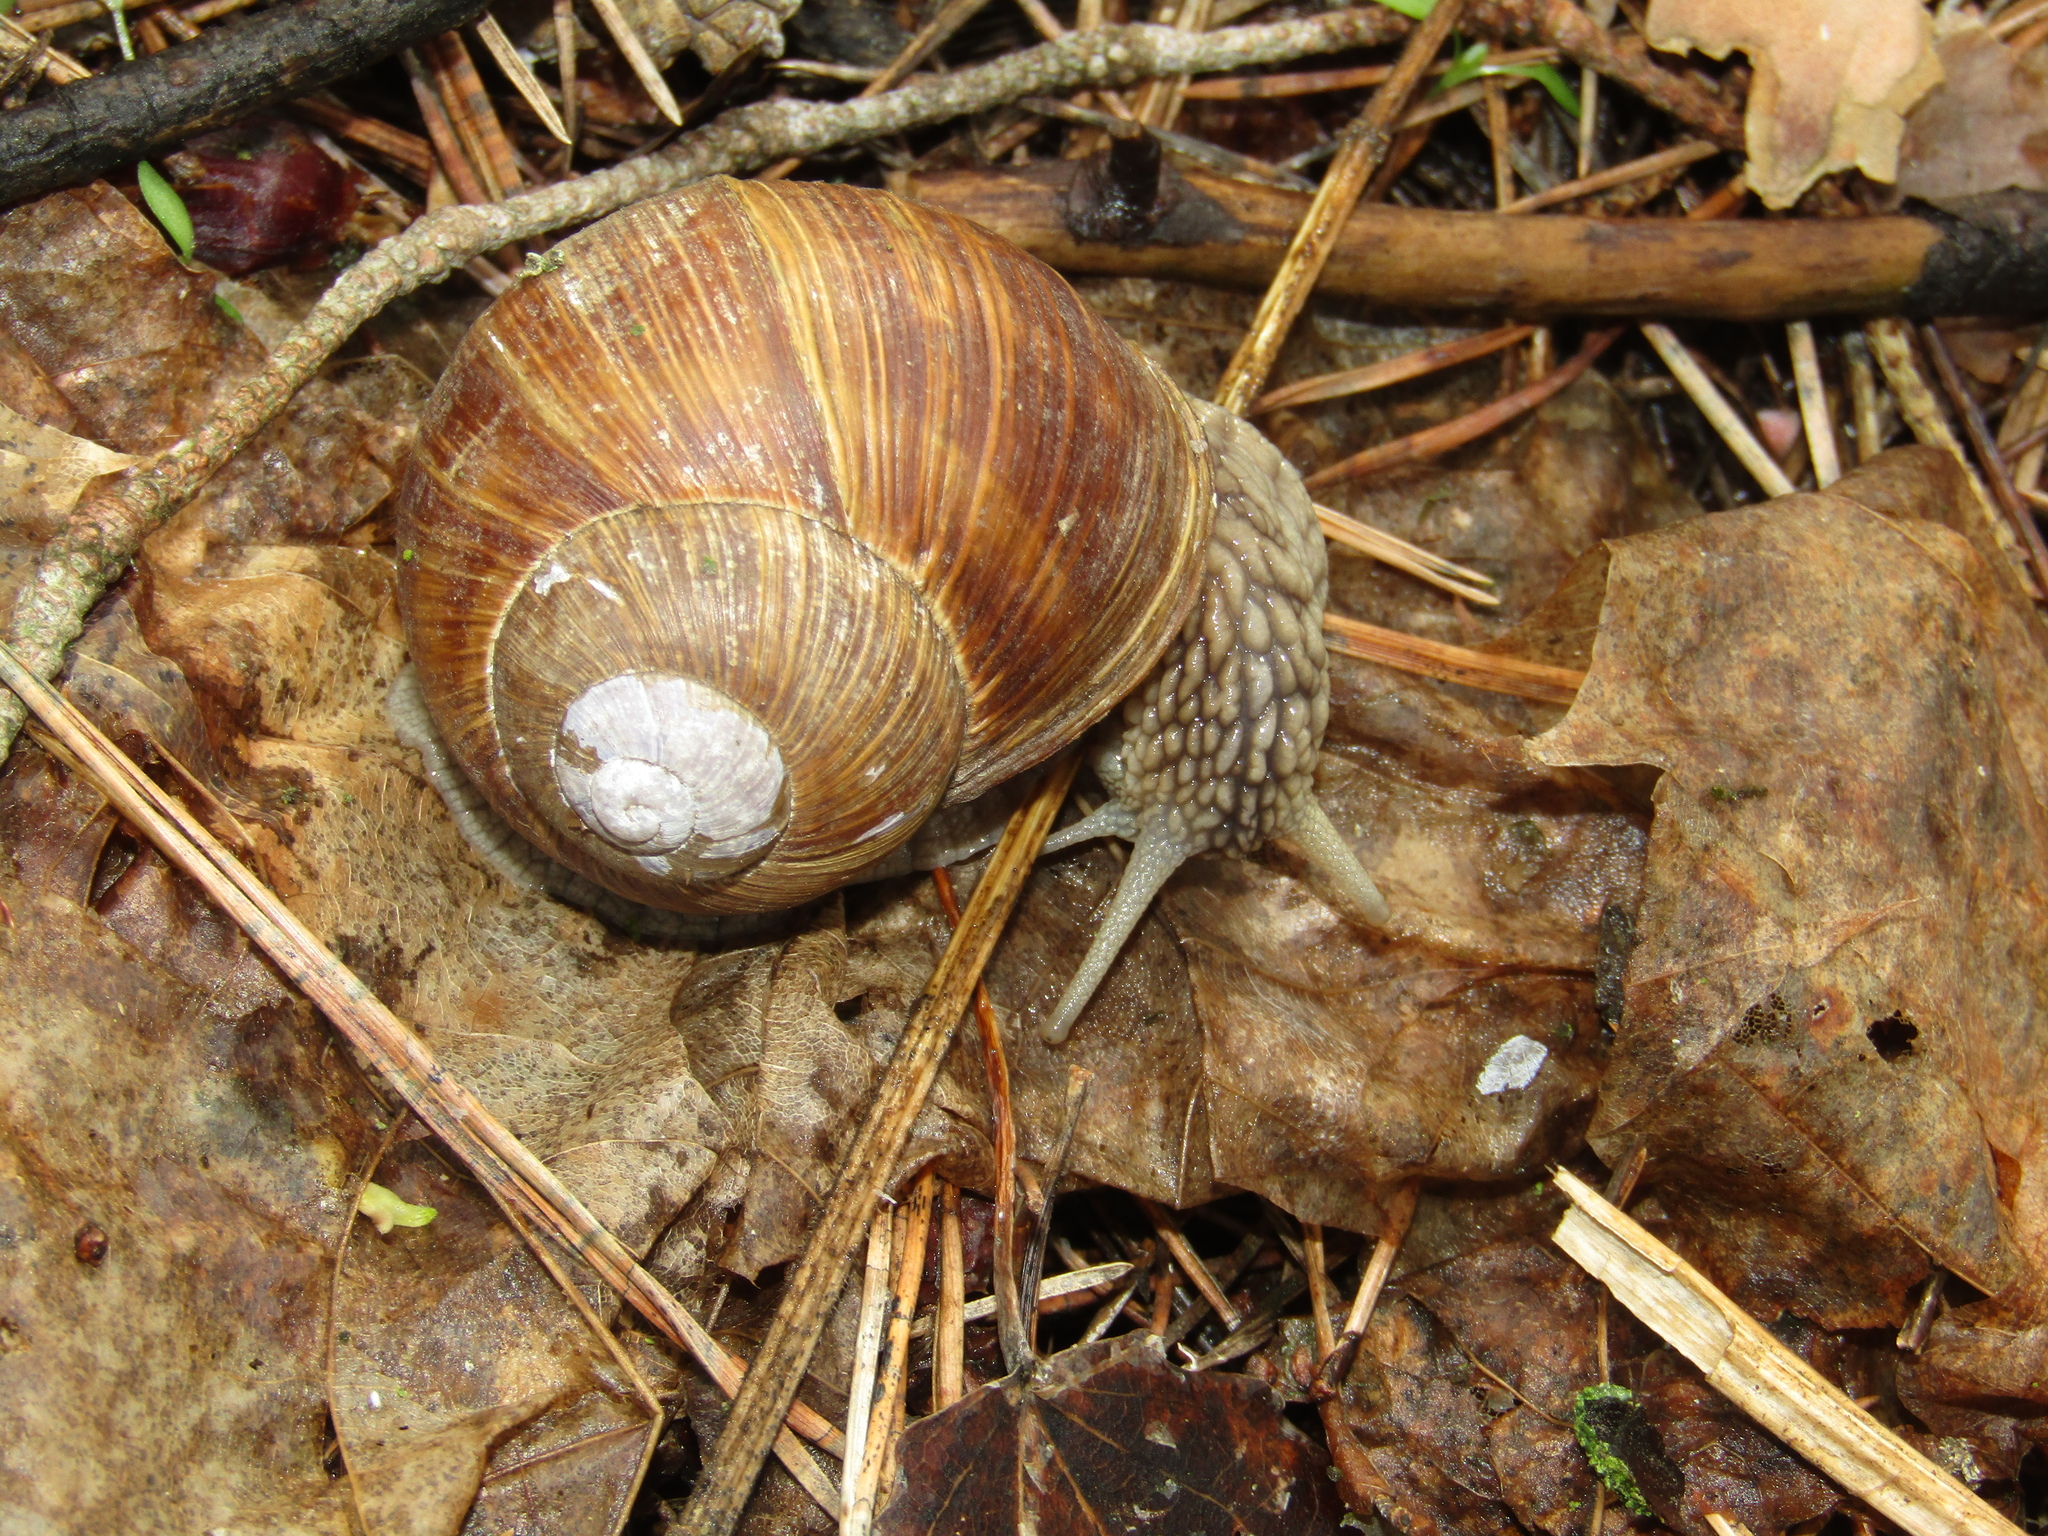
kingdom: Animalia
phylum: Mollusca
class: Gastropoda
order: Stylommatophora
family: Helicidae
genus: Helix
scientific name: Helix pomatia
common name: Roman snail
